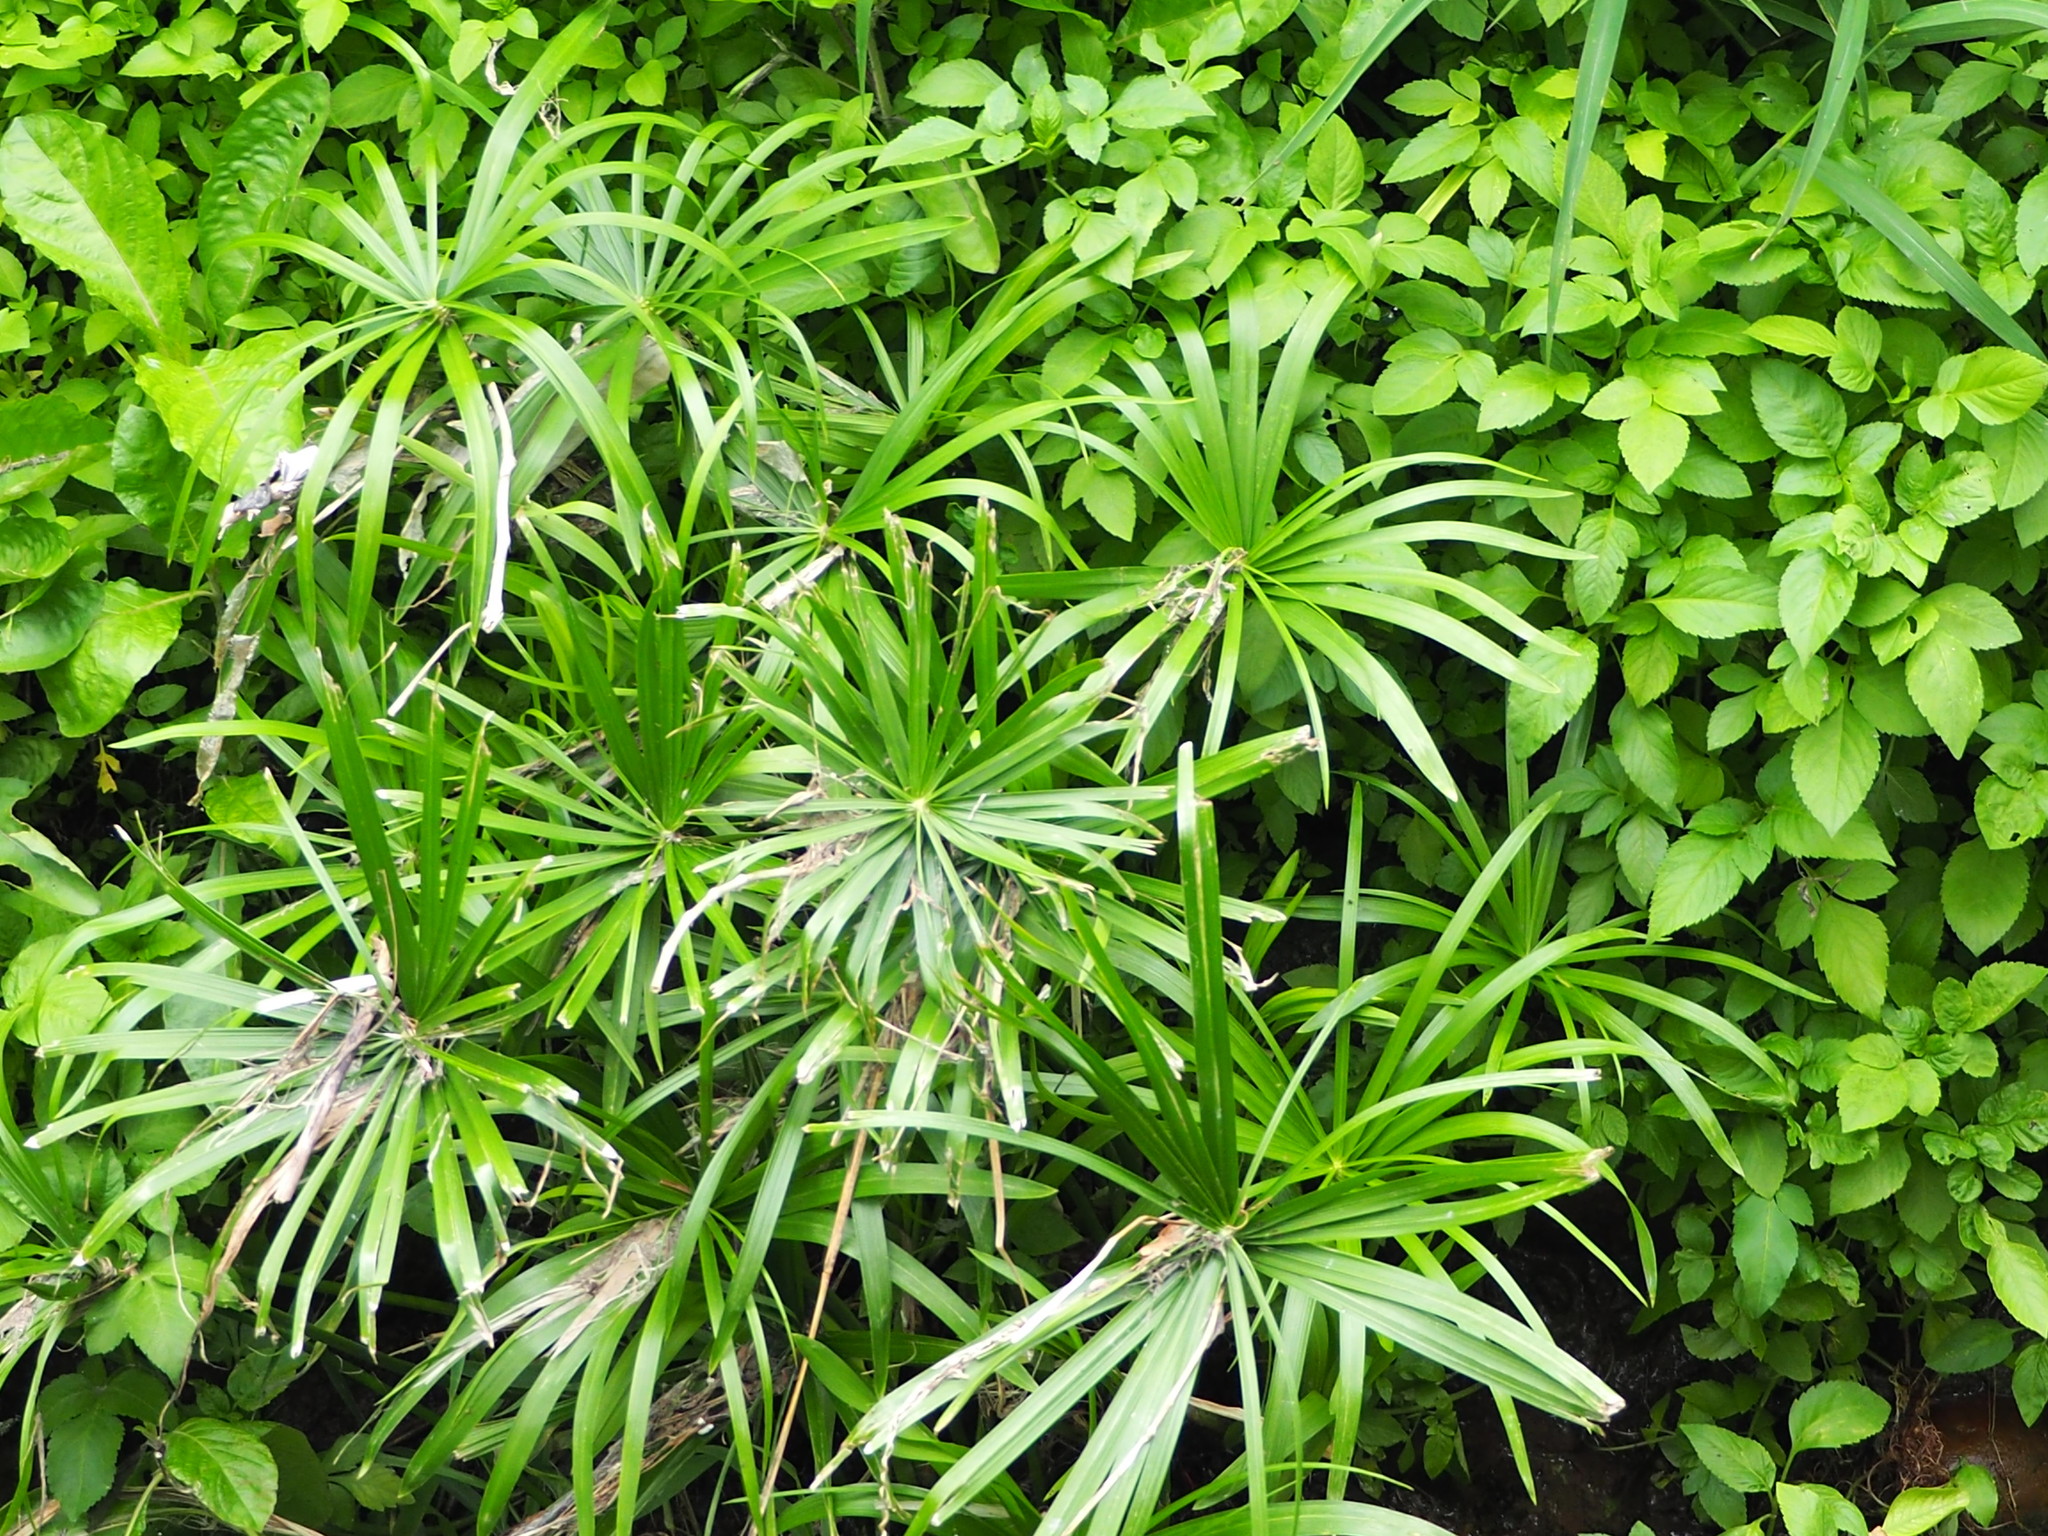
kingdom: Plantae
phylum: Tracheophyta
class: Liliopsida
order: Poales
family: Cyperaceae
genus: Cyperus
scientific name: Cyperus alternifolius
